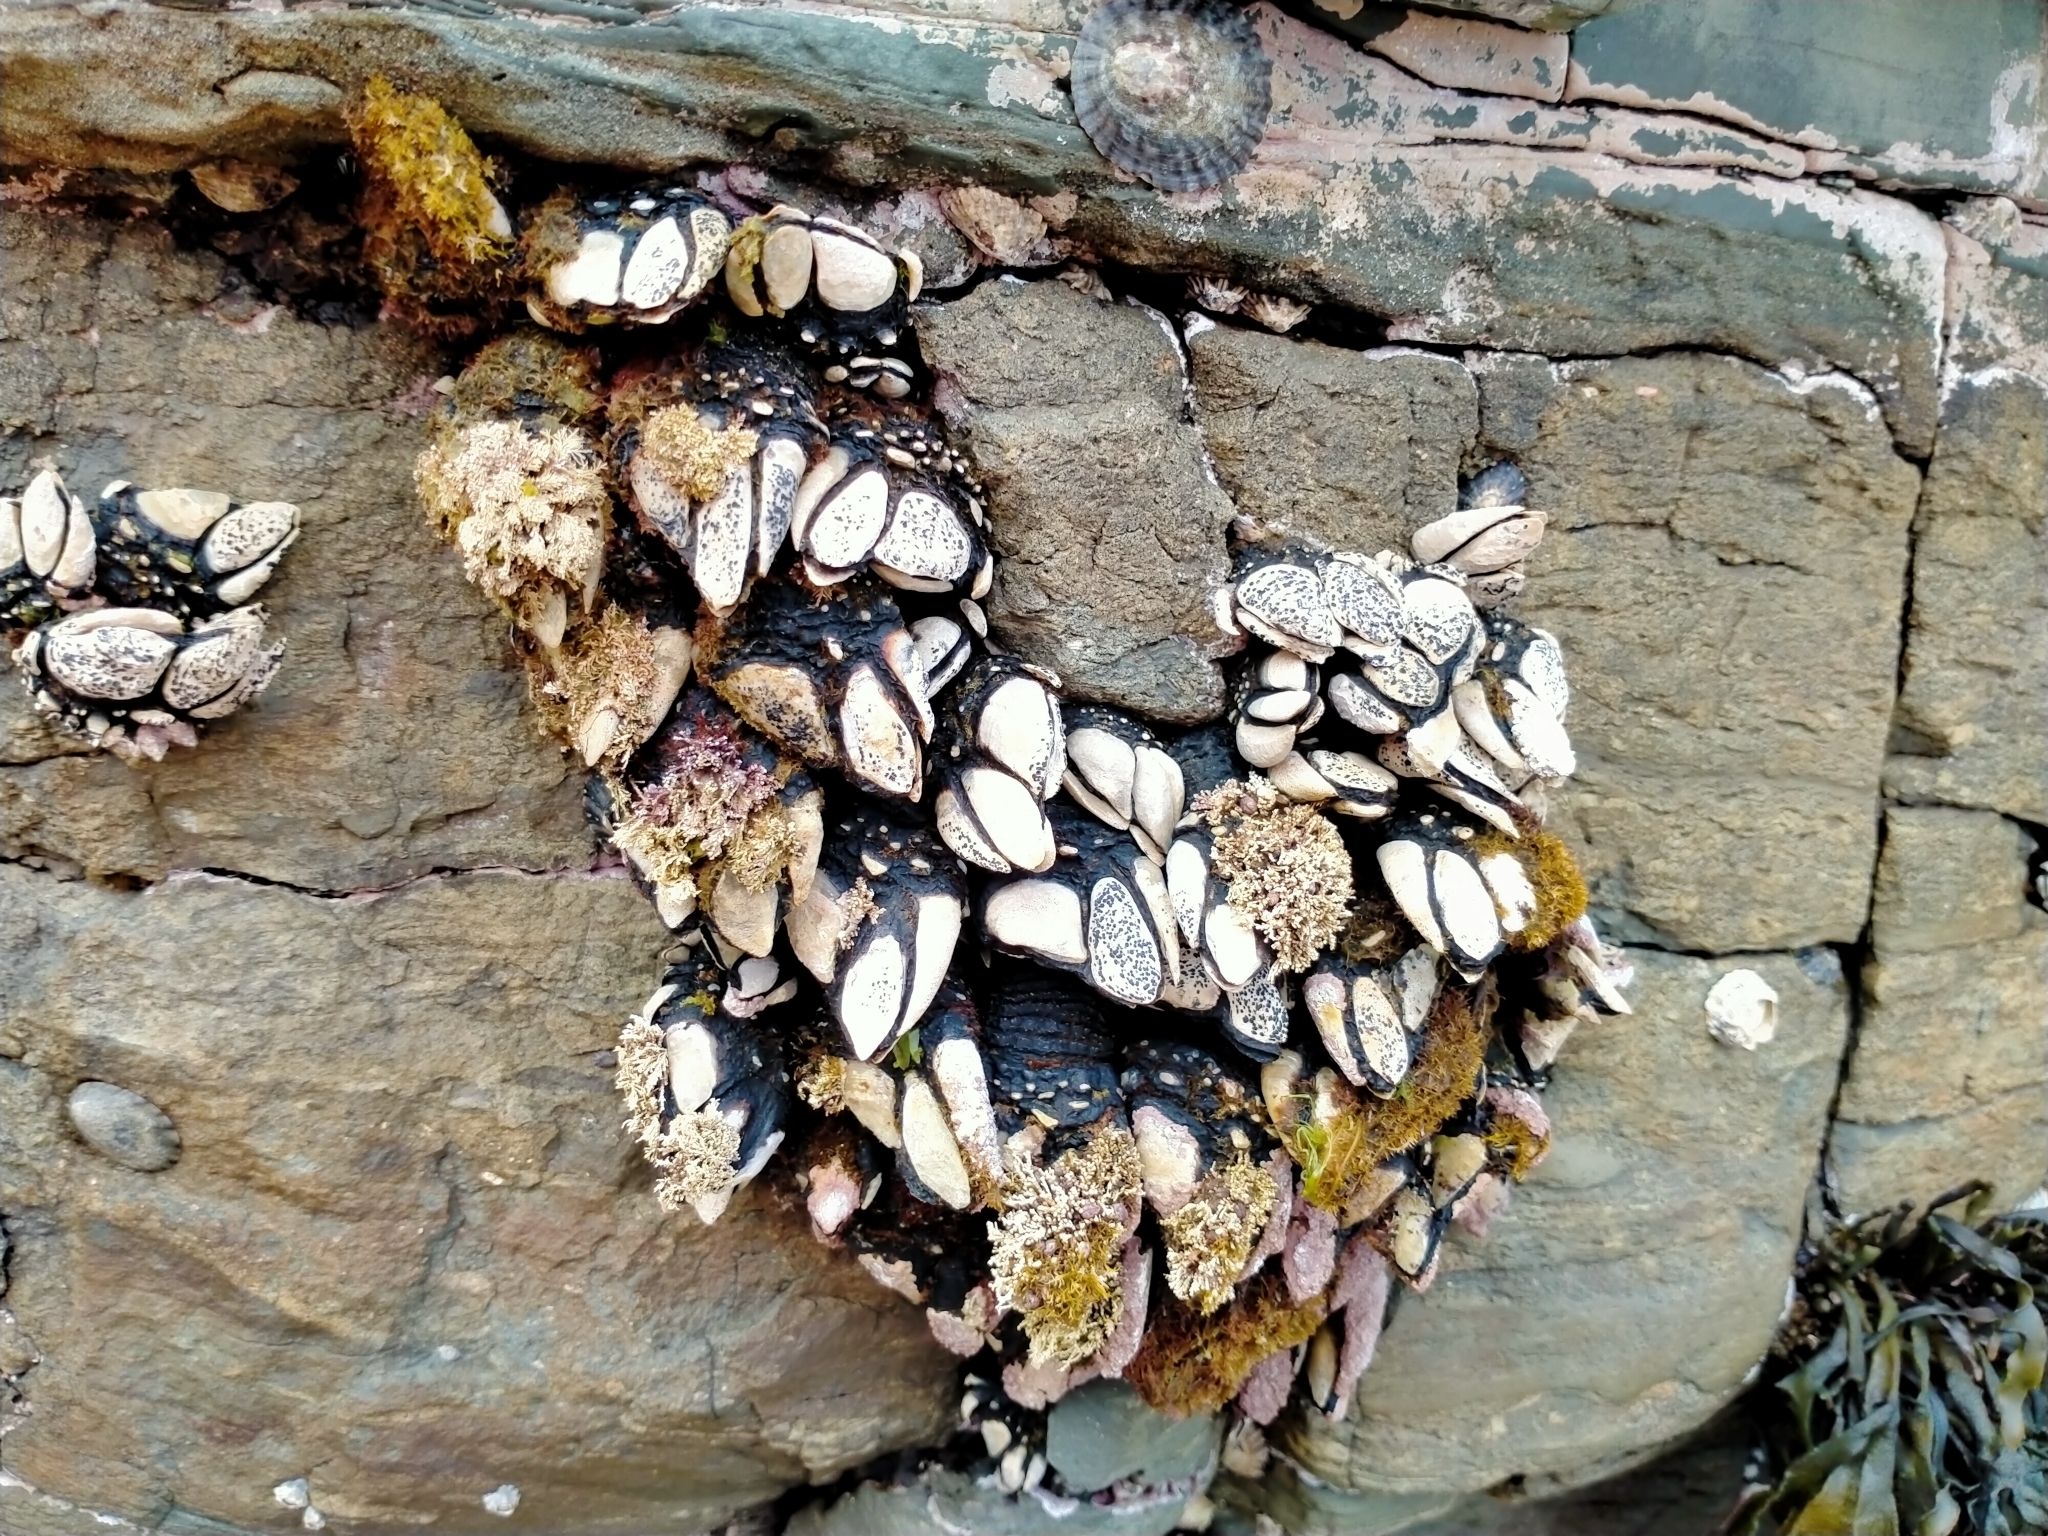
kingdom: Animalia
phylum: Arthropoda
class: Maxillopoda
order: Pedunculata
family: Calanticidae
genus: Calantica
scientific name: Calantica spinosa
